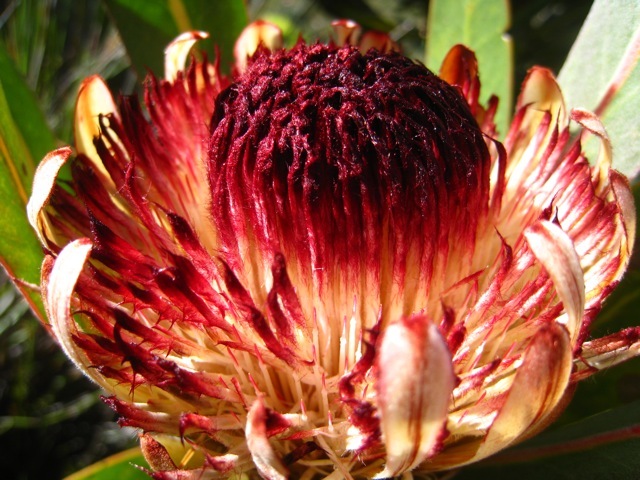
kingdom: Plantae
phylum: Tracheophyta
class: Magnoliopsida
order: Proteales
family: Proteaceae
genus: Protea
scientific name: Protea lorifolia
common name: Strap-leaved protea
